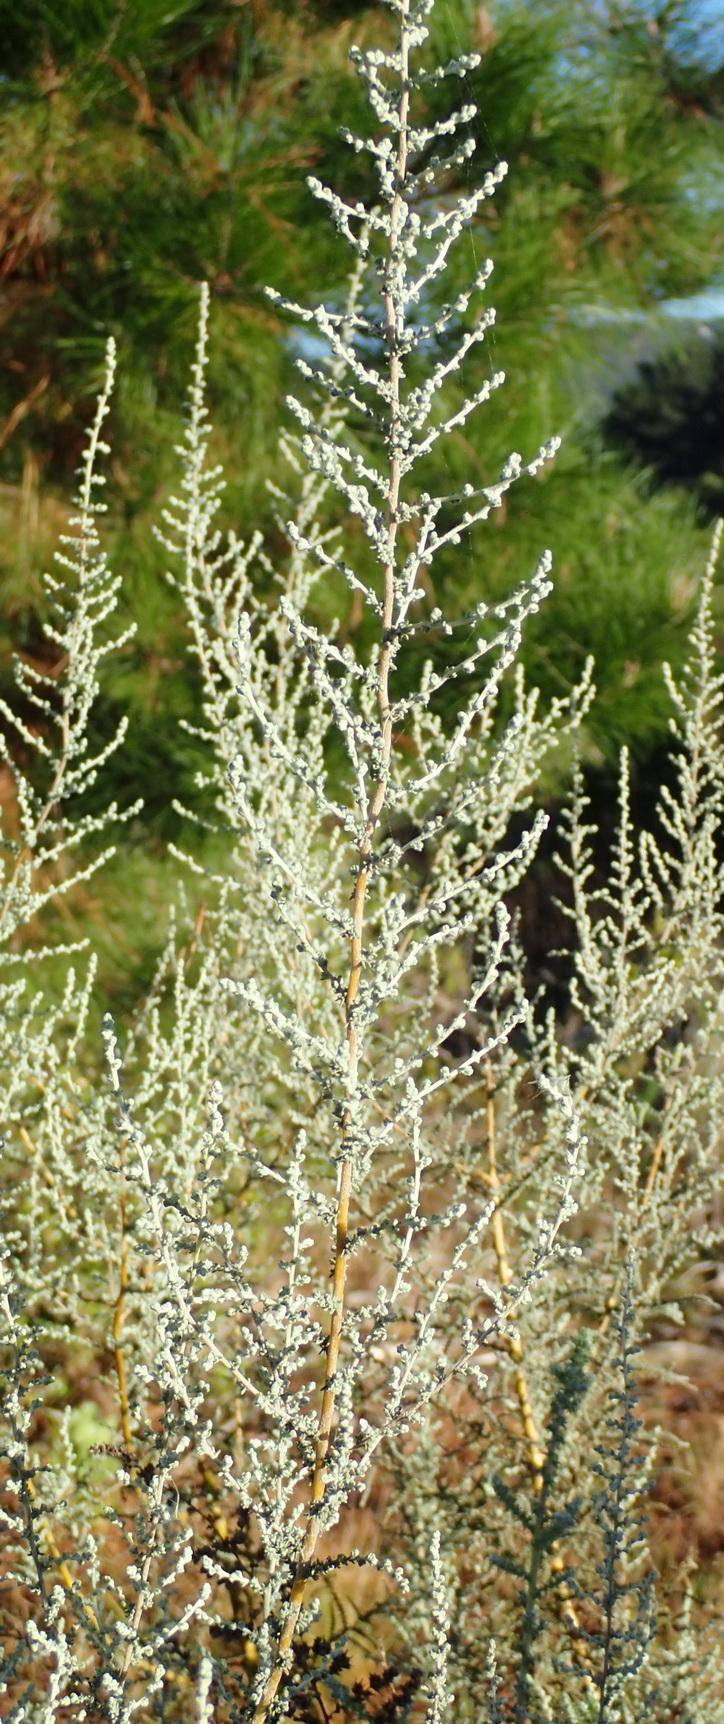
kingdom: Plantae
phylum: Tracheophyta
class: Magnoliopsida
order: Asterales
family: Asteraceae
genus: Seriphium
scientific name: Seriphium plumosum
